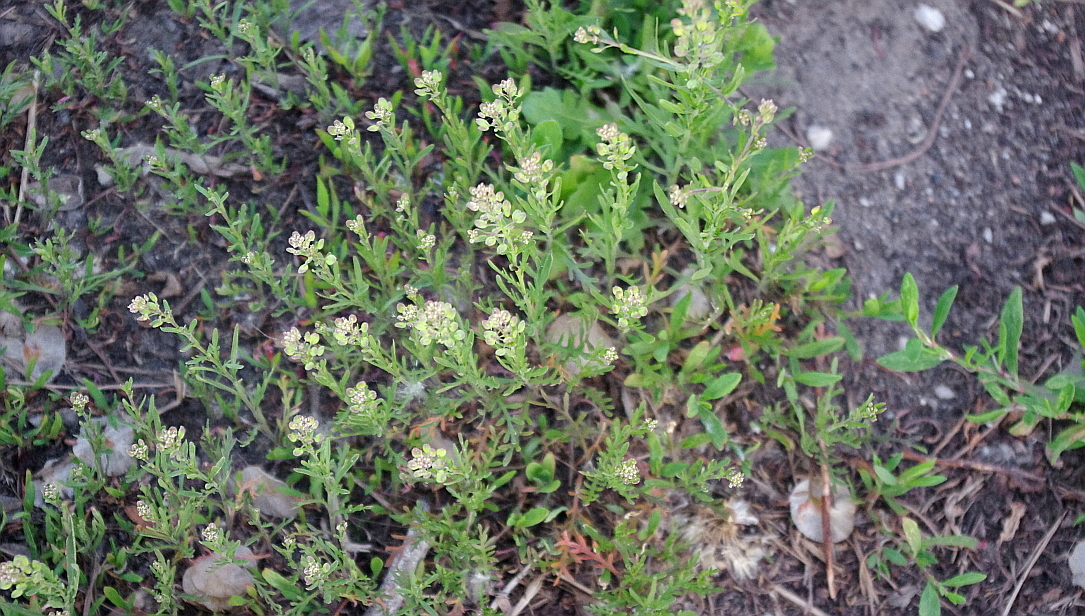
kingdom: Plantae
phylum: Tracheophyta
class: Magnoliopsida
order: Brassicales
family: Brassicaceae
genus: Lepidium
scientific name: Lepidium ruderale
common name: Narrow-leaved pepperwort
